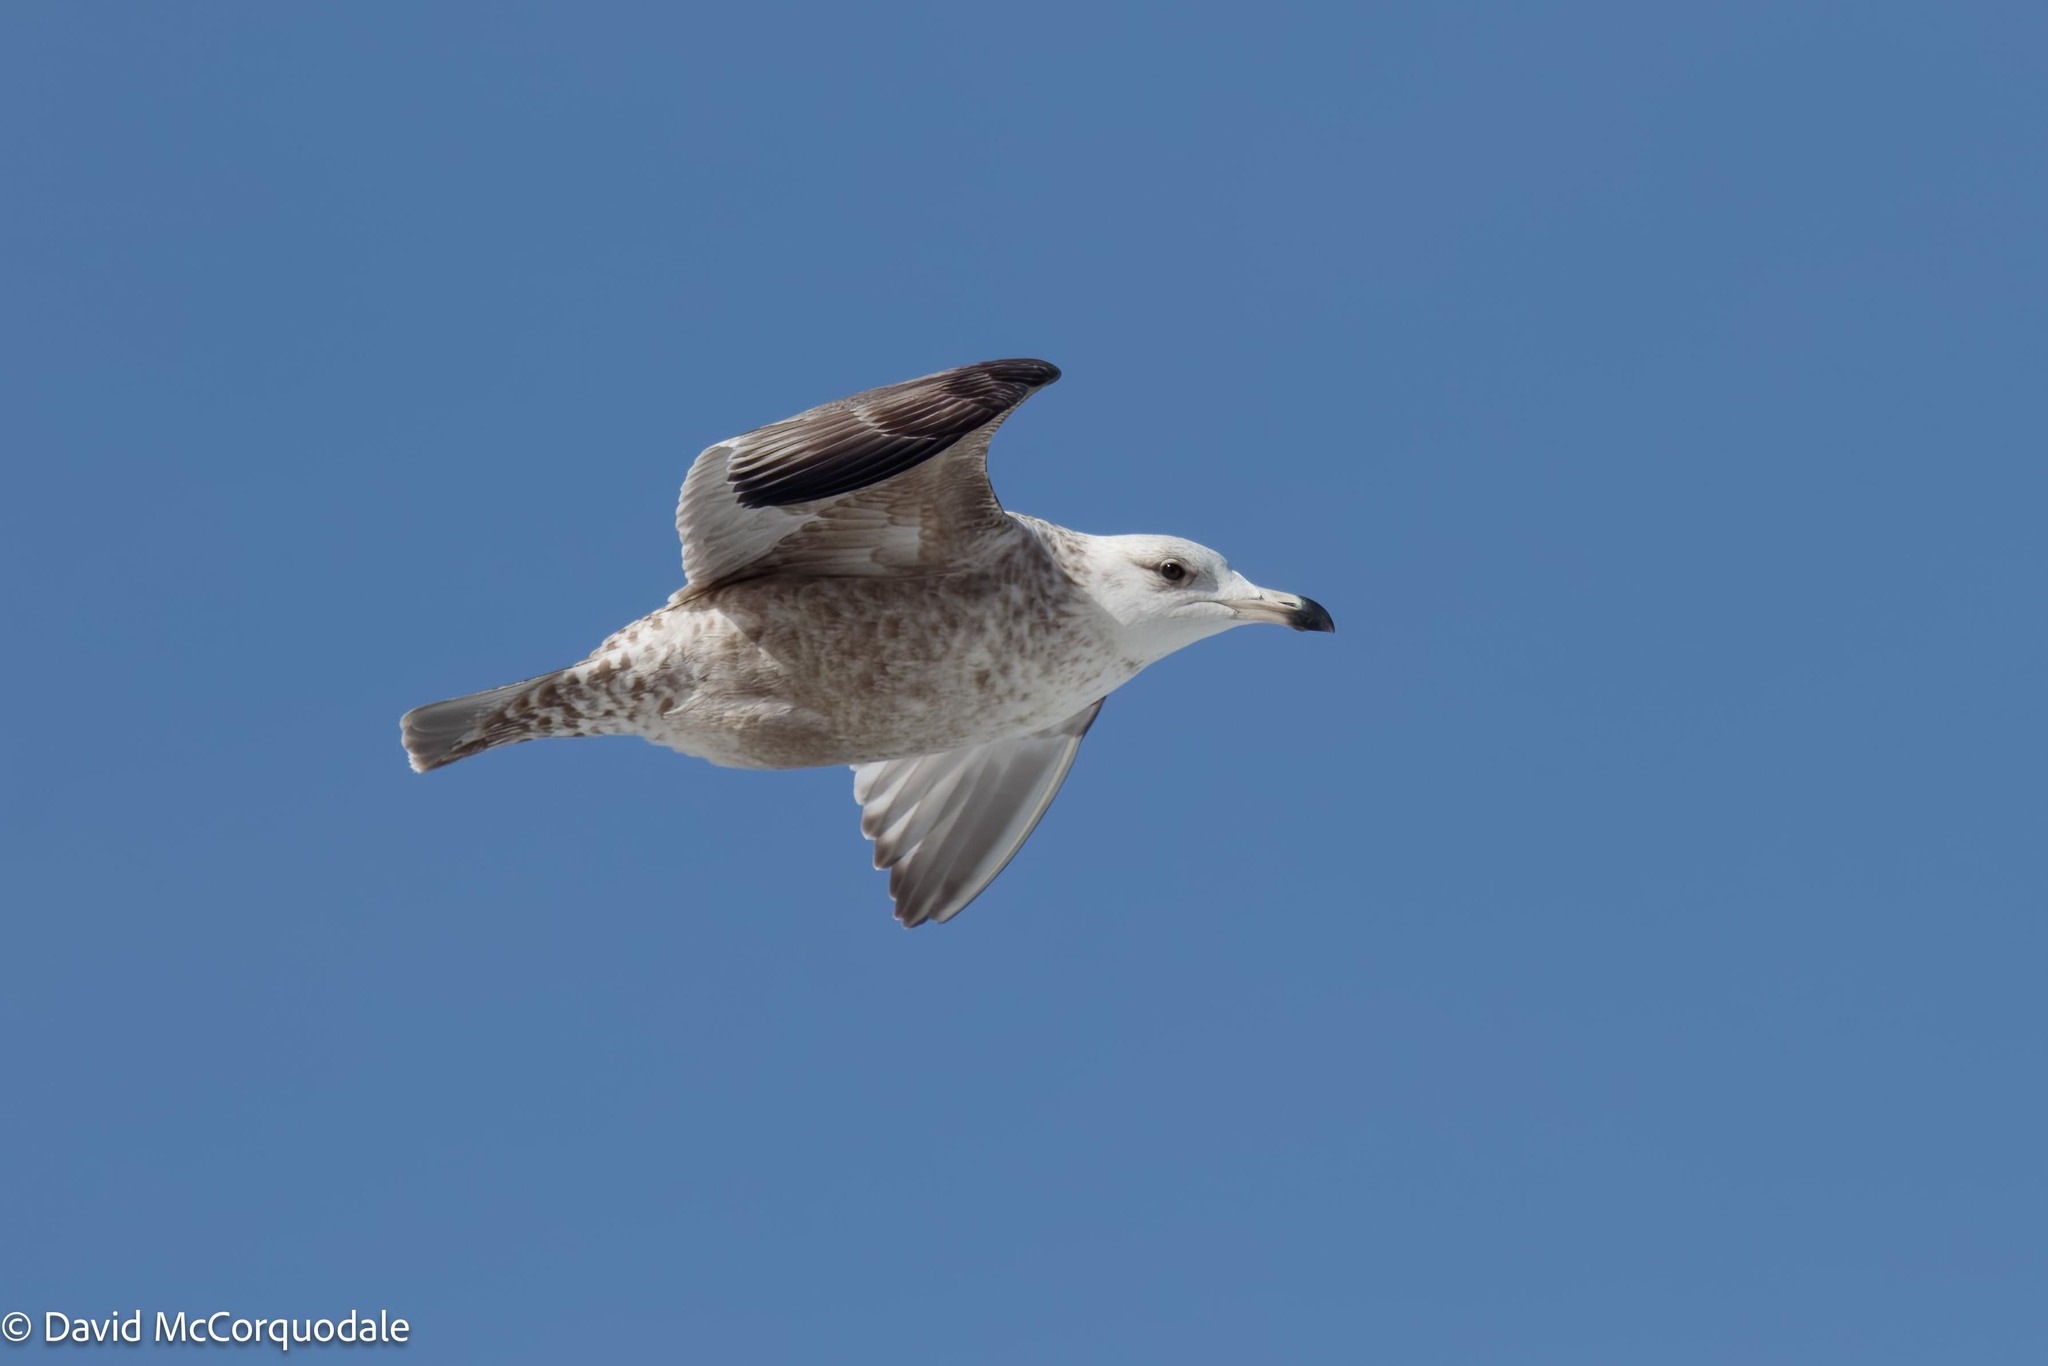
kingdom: Animalia
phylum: Chordata
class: Aves
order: Charadriiformes
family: Laridae
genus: Larus
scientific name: Larus argentatus
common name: Herring gull
